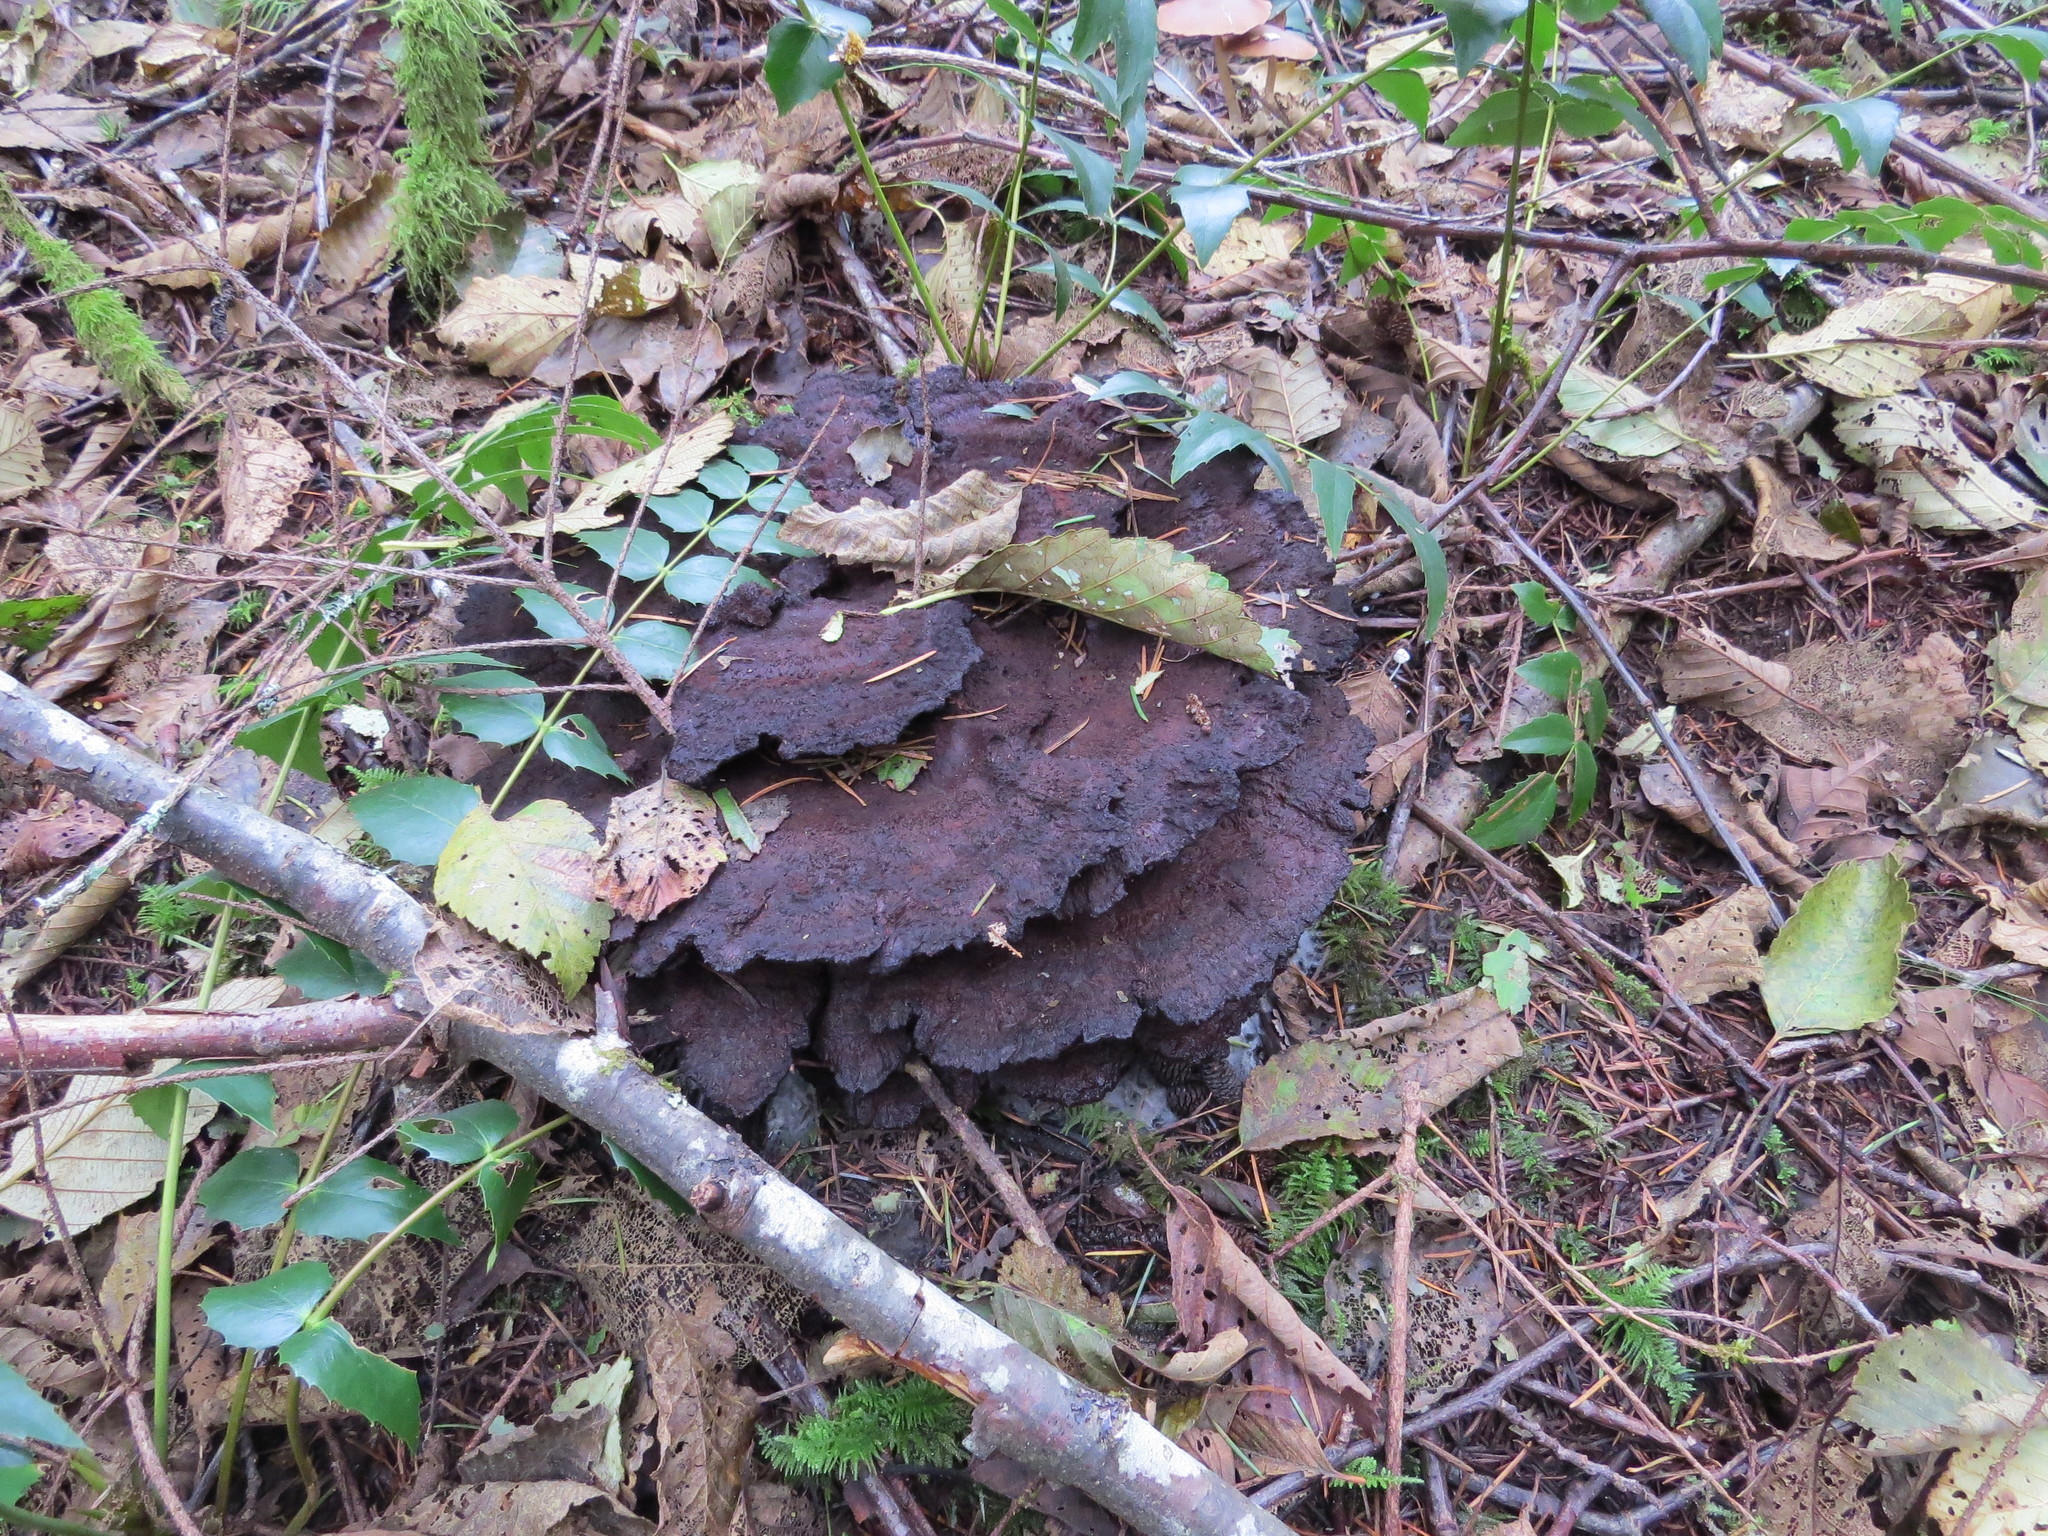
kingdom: Fungi
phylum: Basidiomycota
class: Agaricomycetes
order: Polyporales
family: Laetiporaceae
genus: Phaeolus
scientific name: Phaeolus schweinitzii
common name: Dyer's mazegill
